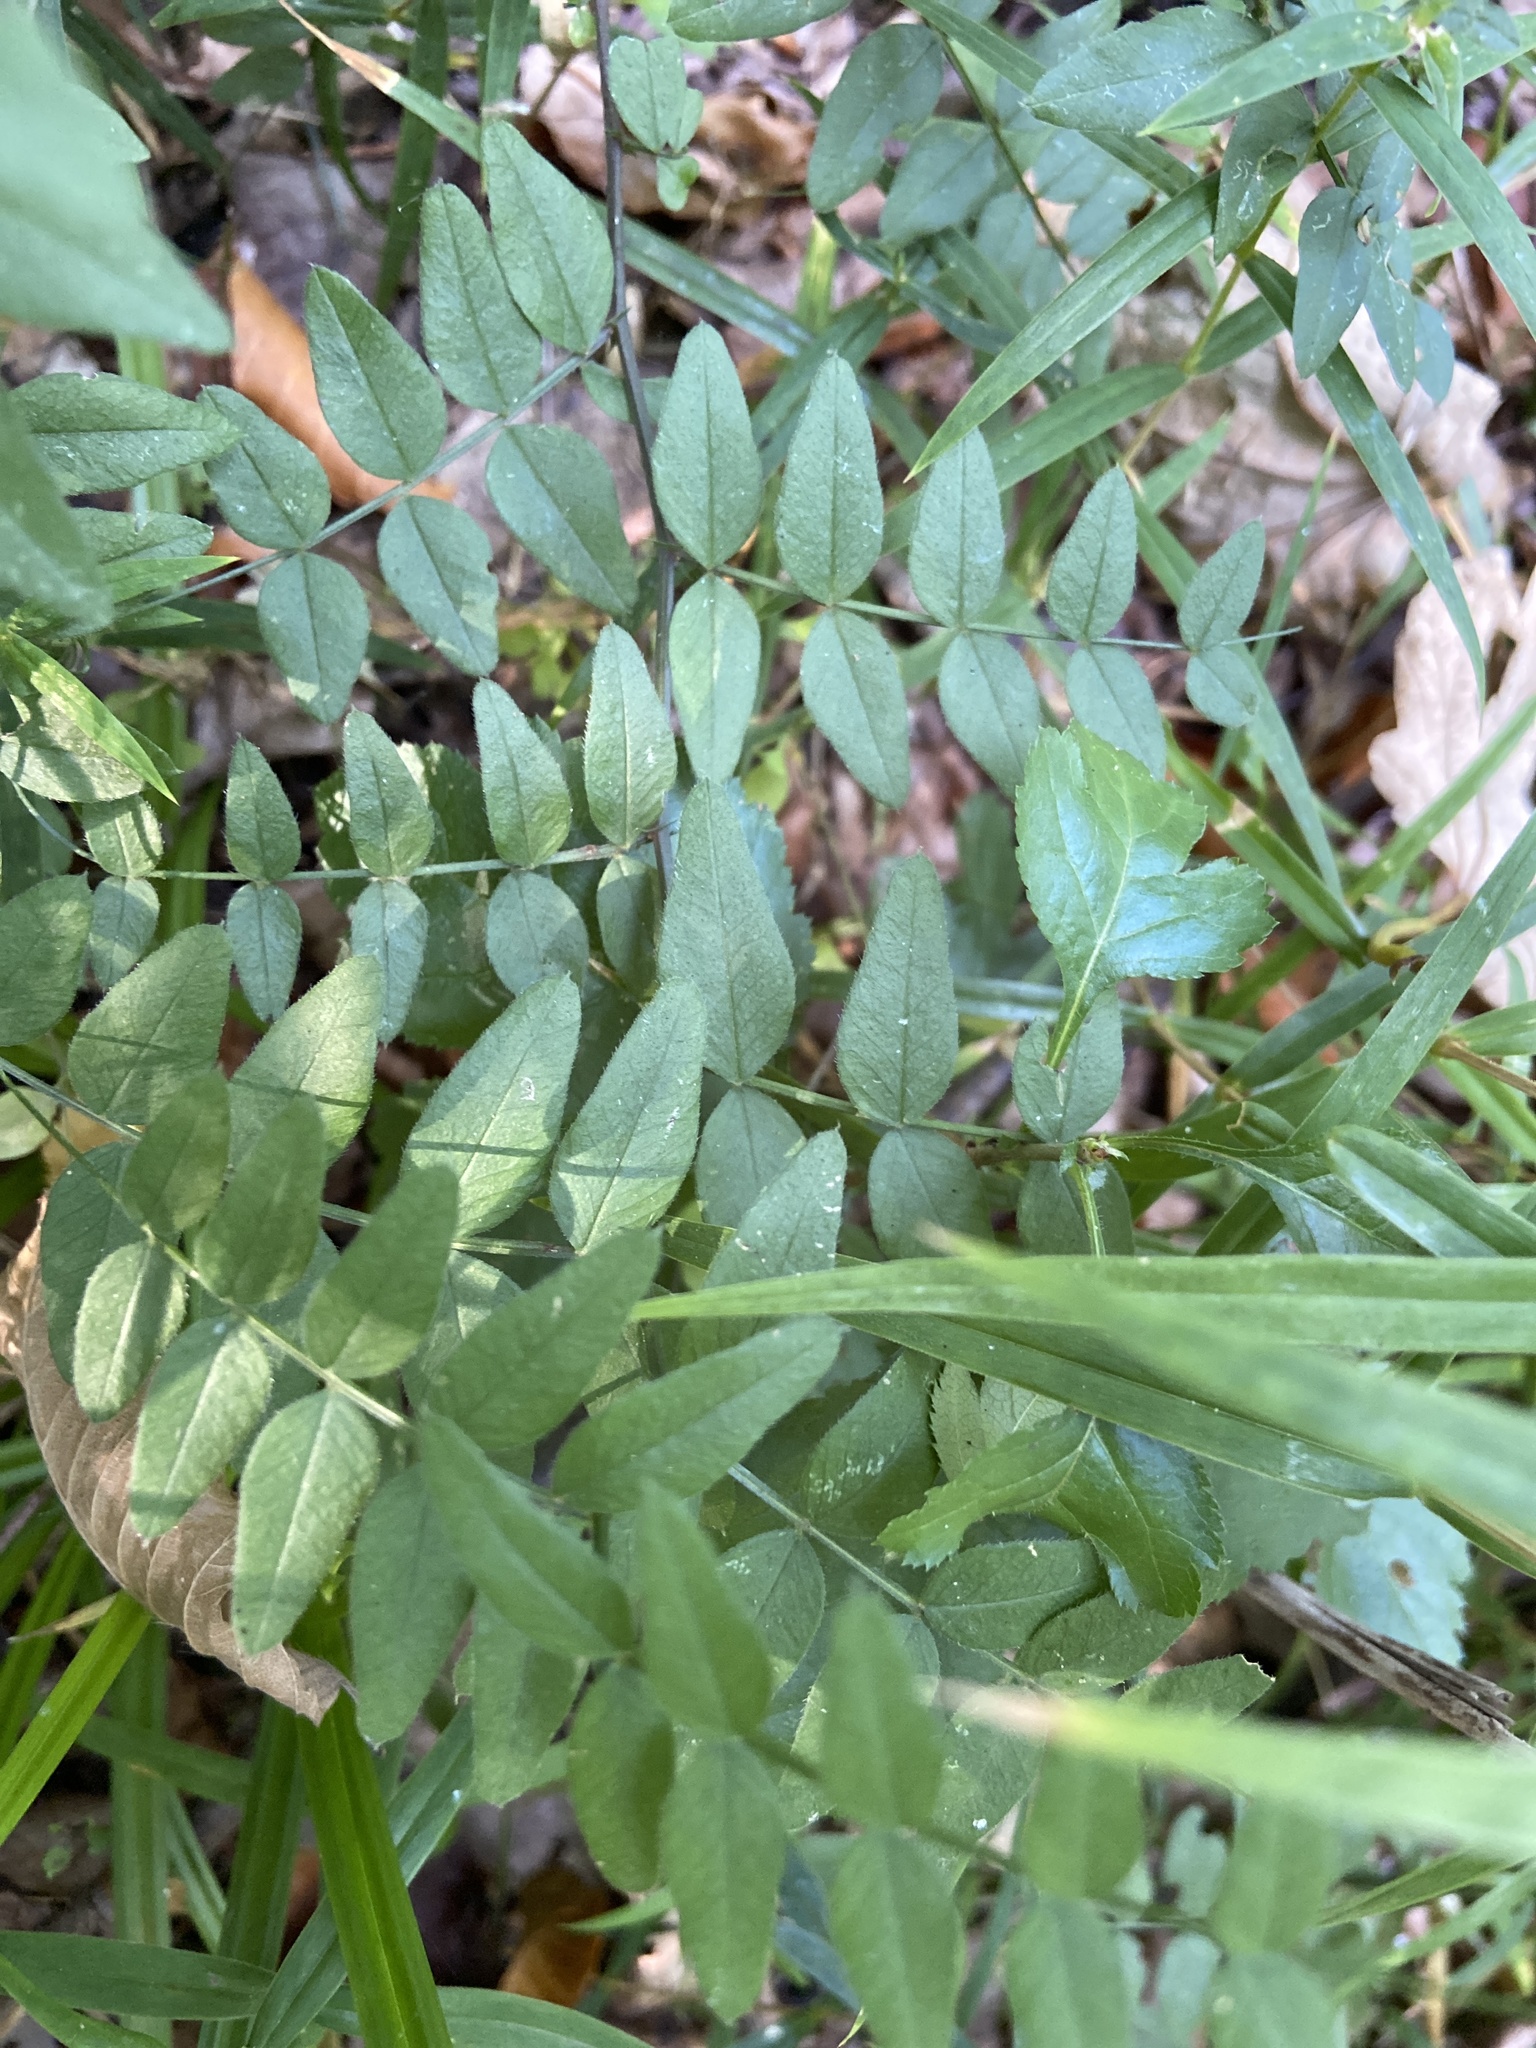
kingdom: Plantae
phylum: Tracheophyta
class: Magnoliopsida
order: Fabales
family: Fabaceae
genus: Vicia
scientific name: Vicia sepium
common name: Bush vetch
